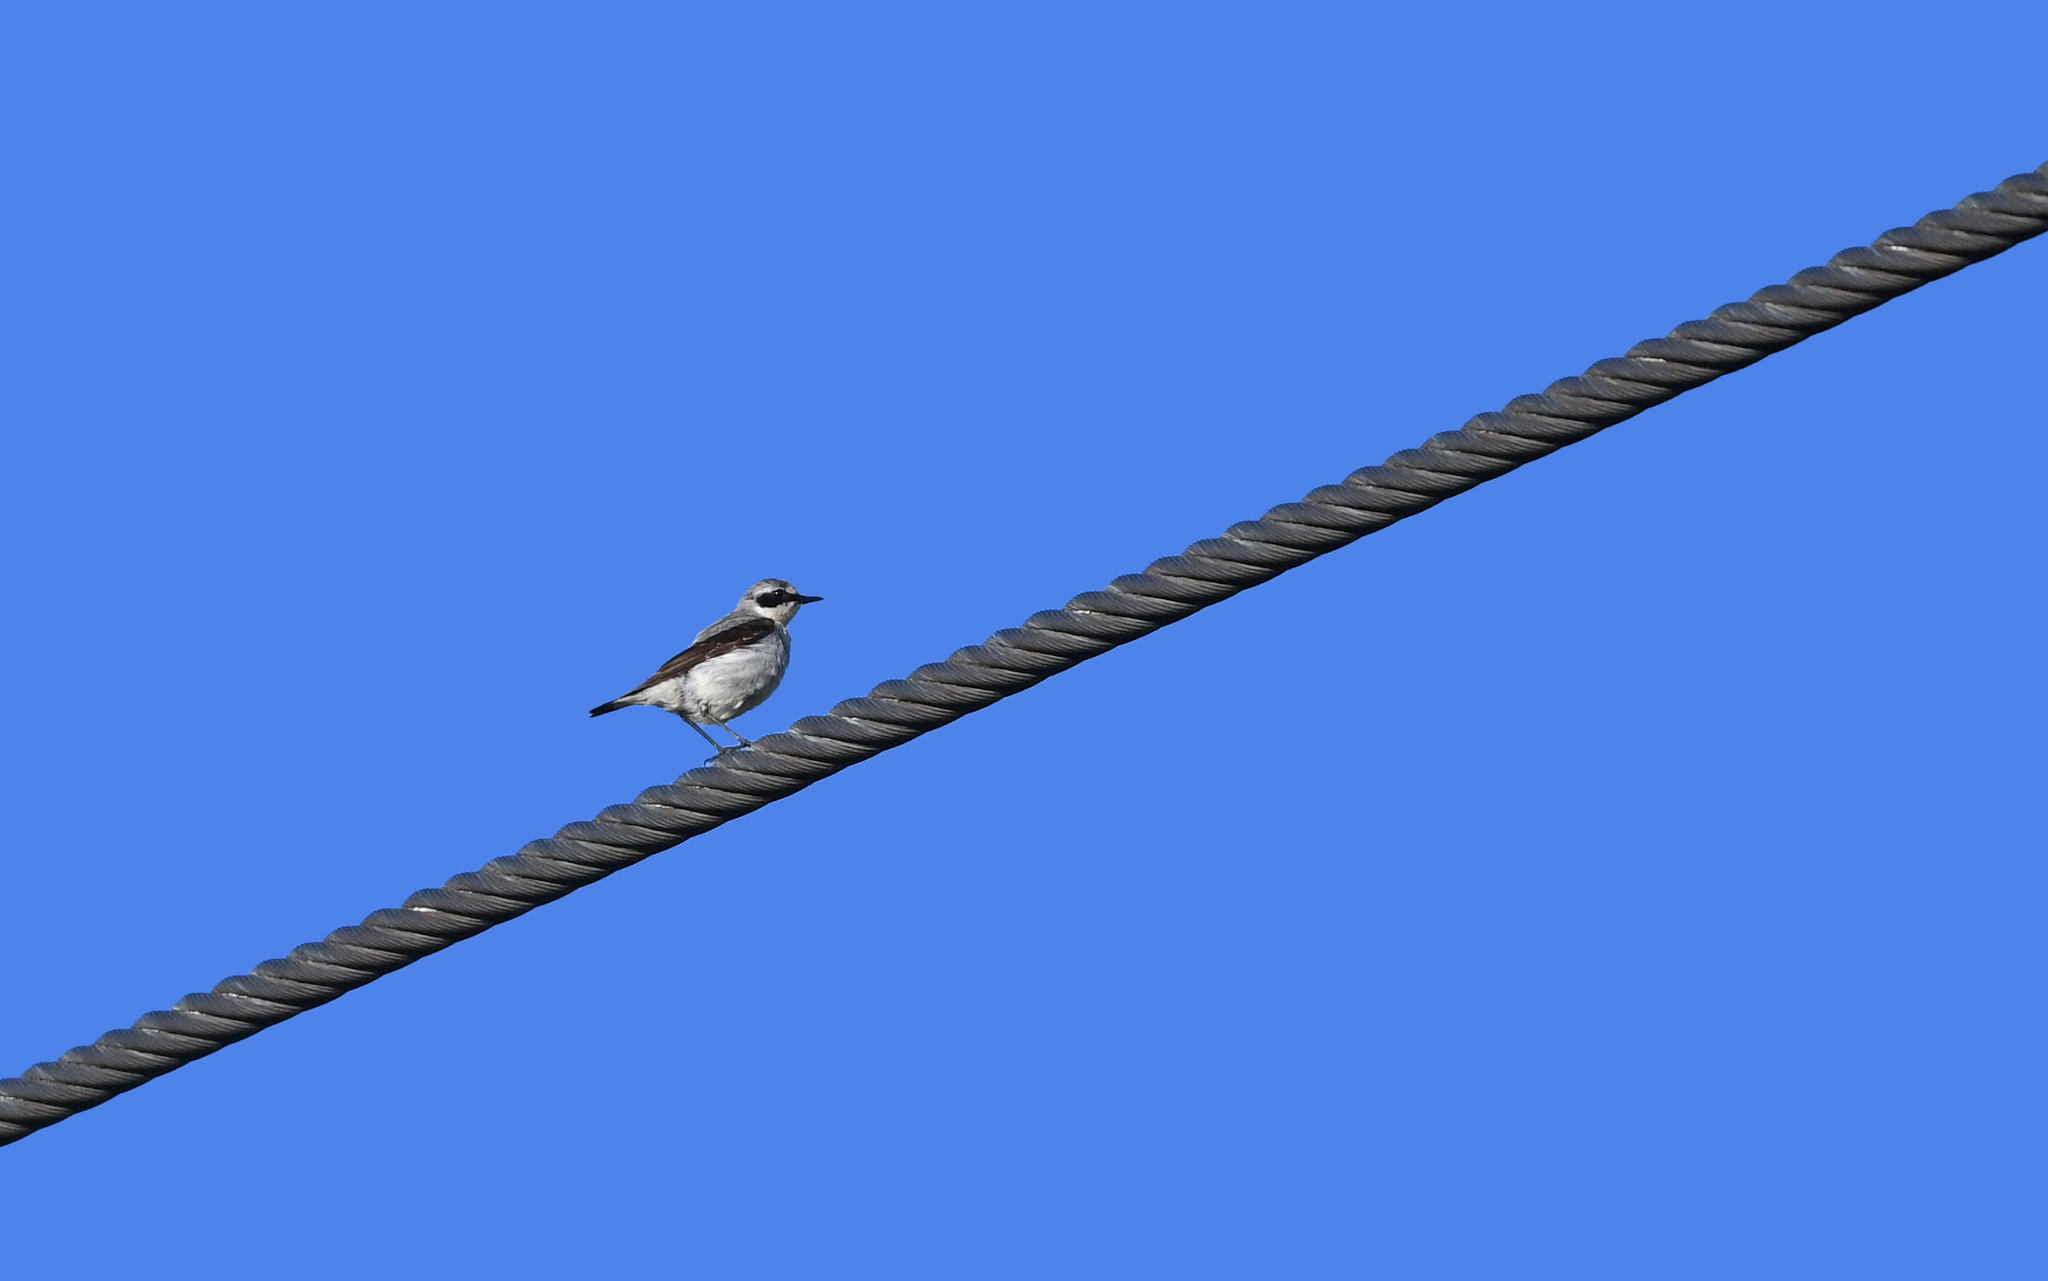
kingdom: Animalia
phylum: Chordata
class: Aves
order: Passeriformes
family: Muscicapidae
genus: Oenanthe
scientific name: Oenanthe oenanthe
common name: Northern wheatear
